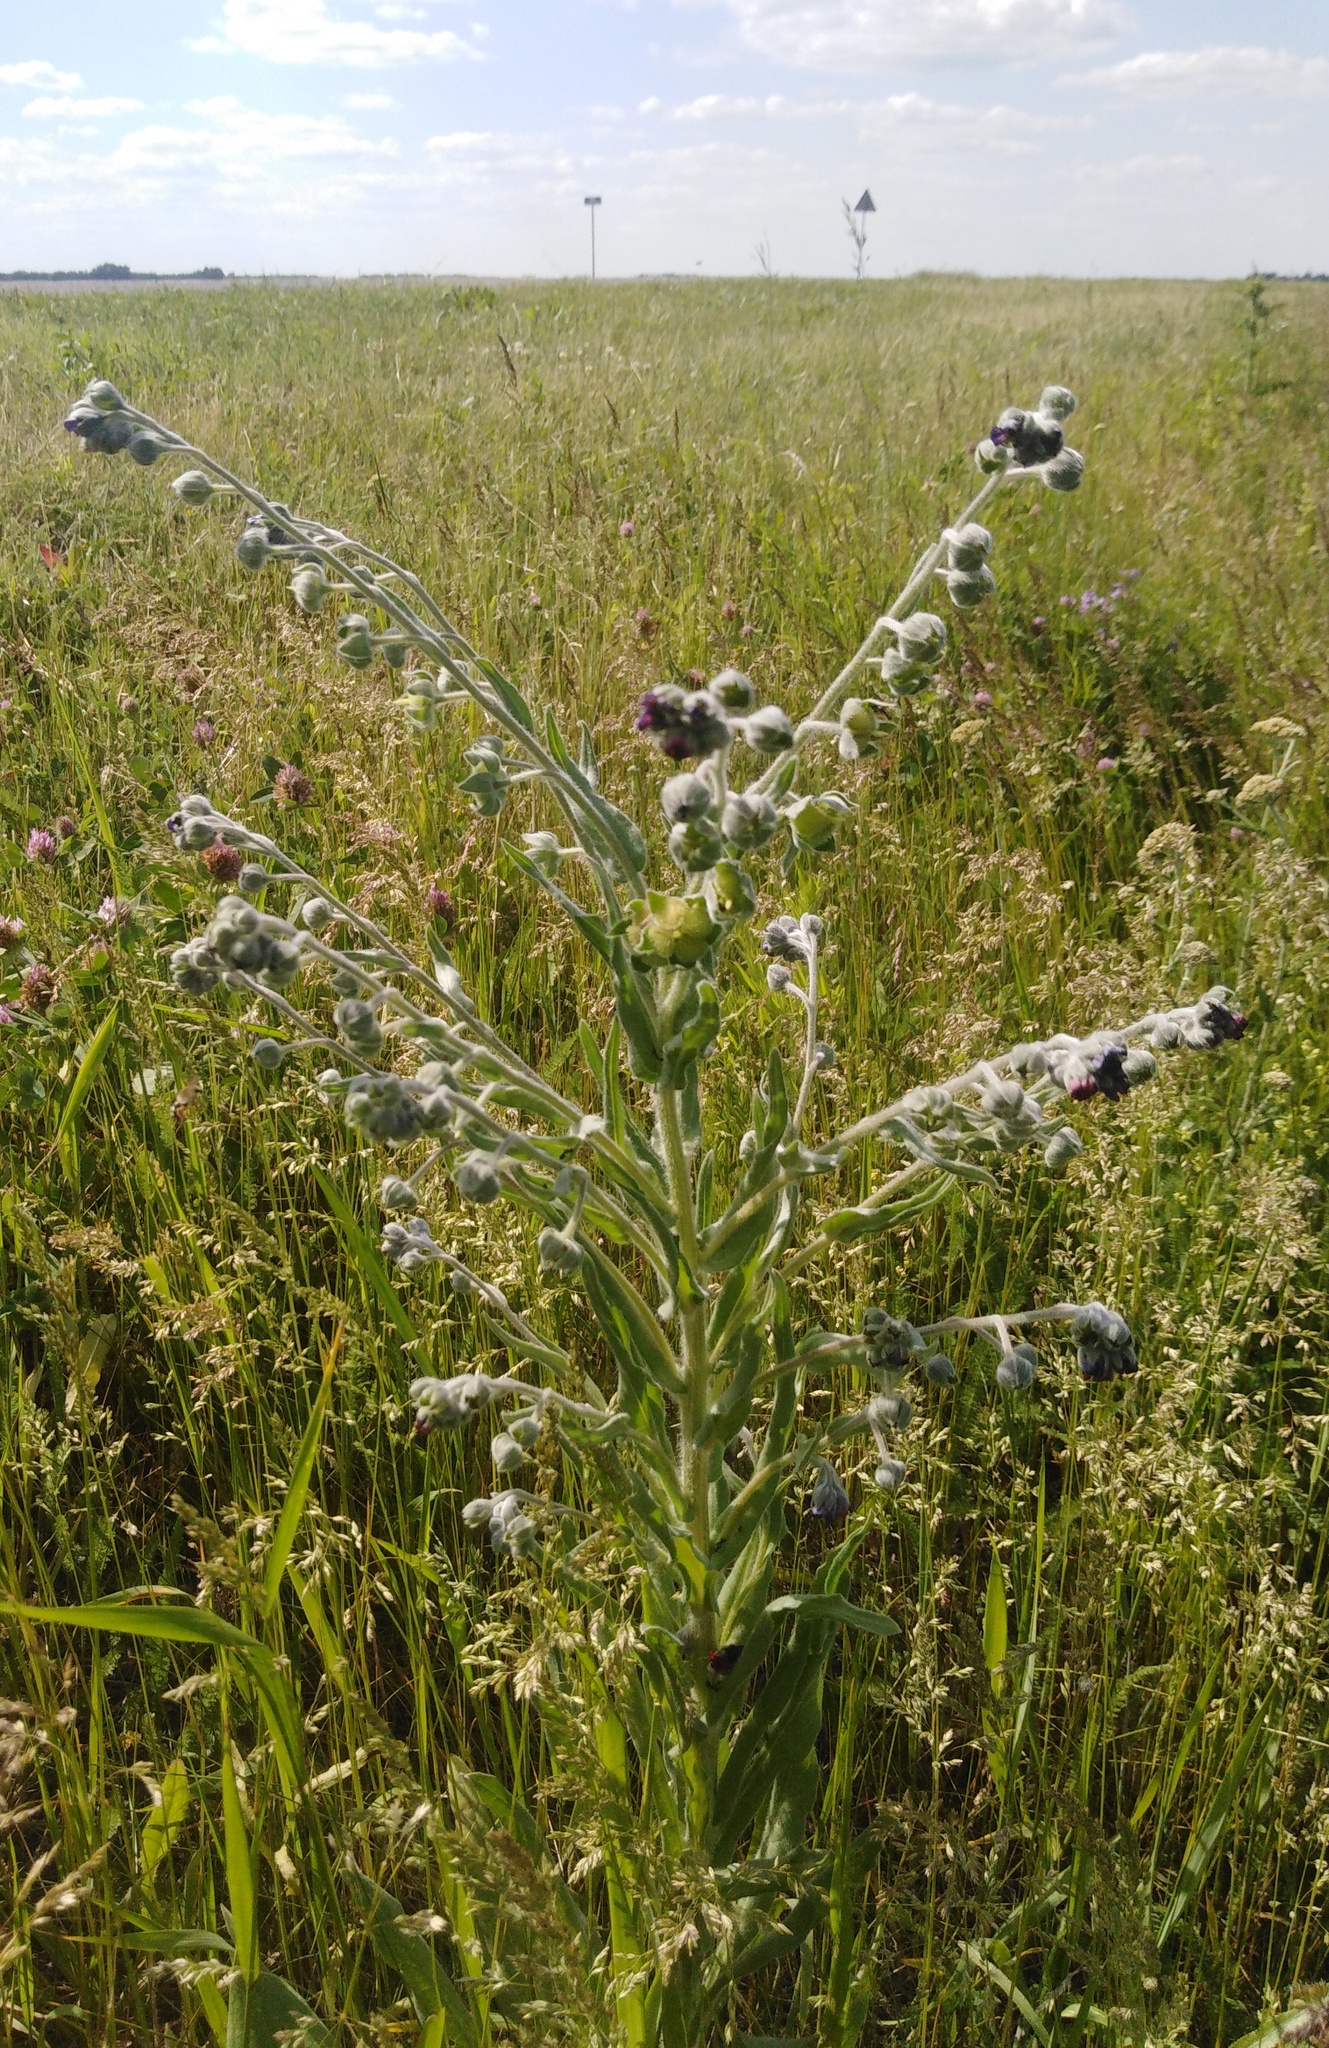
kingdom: Plantae
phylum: Tracheophyta
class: Magnoliopsida
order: Boraginales
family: Boraginaceae
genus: Cynoglossum
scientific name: Cynoglossum officinale
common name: Hound's-tongue
